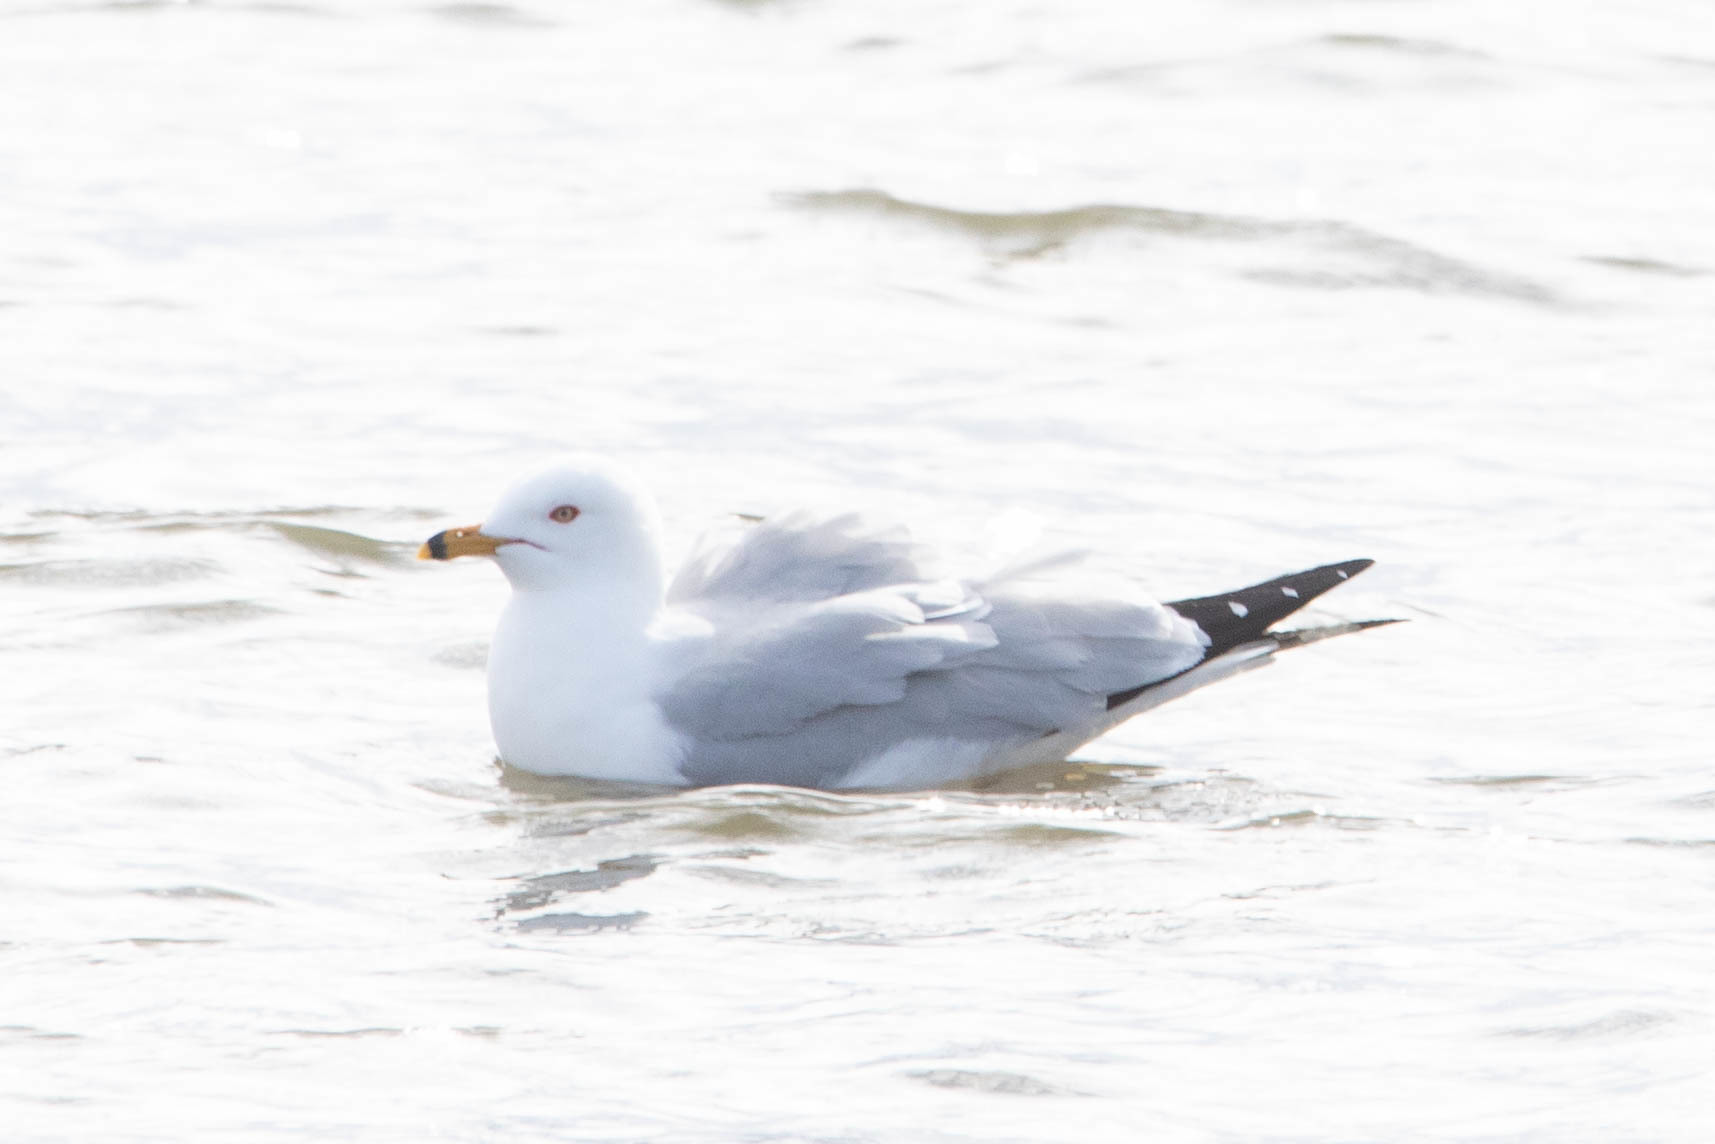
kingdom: Animalia
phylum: Chordata
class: Aves
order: Charadriiformes
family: Laridae
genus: Larus
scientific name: Larus delawarensis
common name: Ring-billed gull
